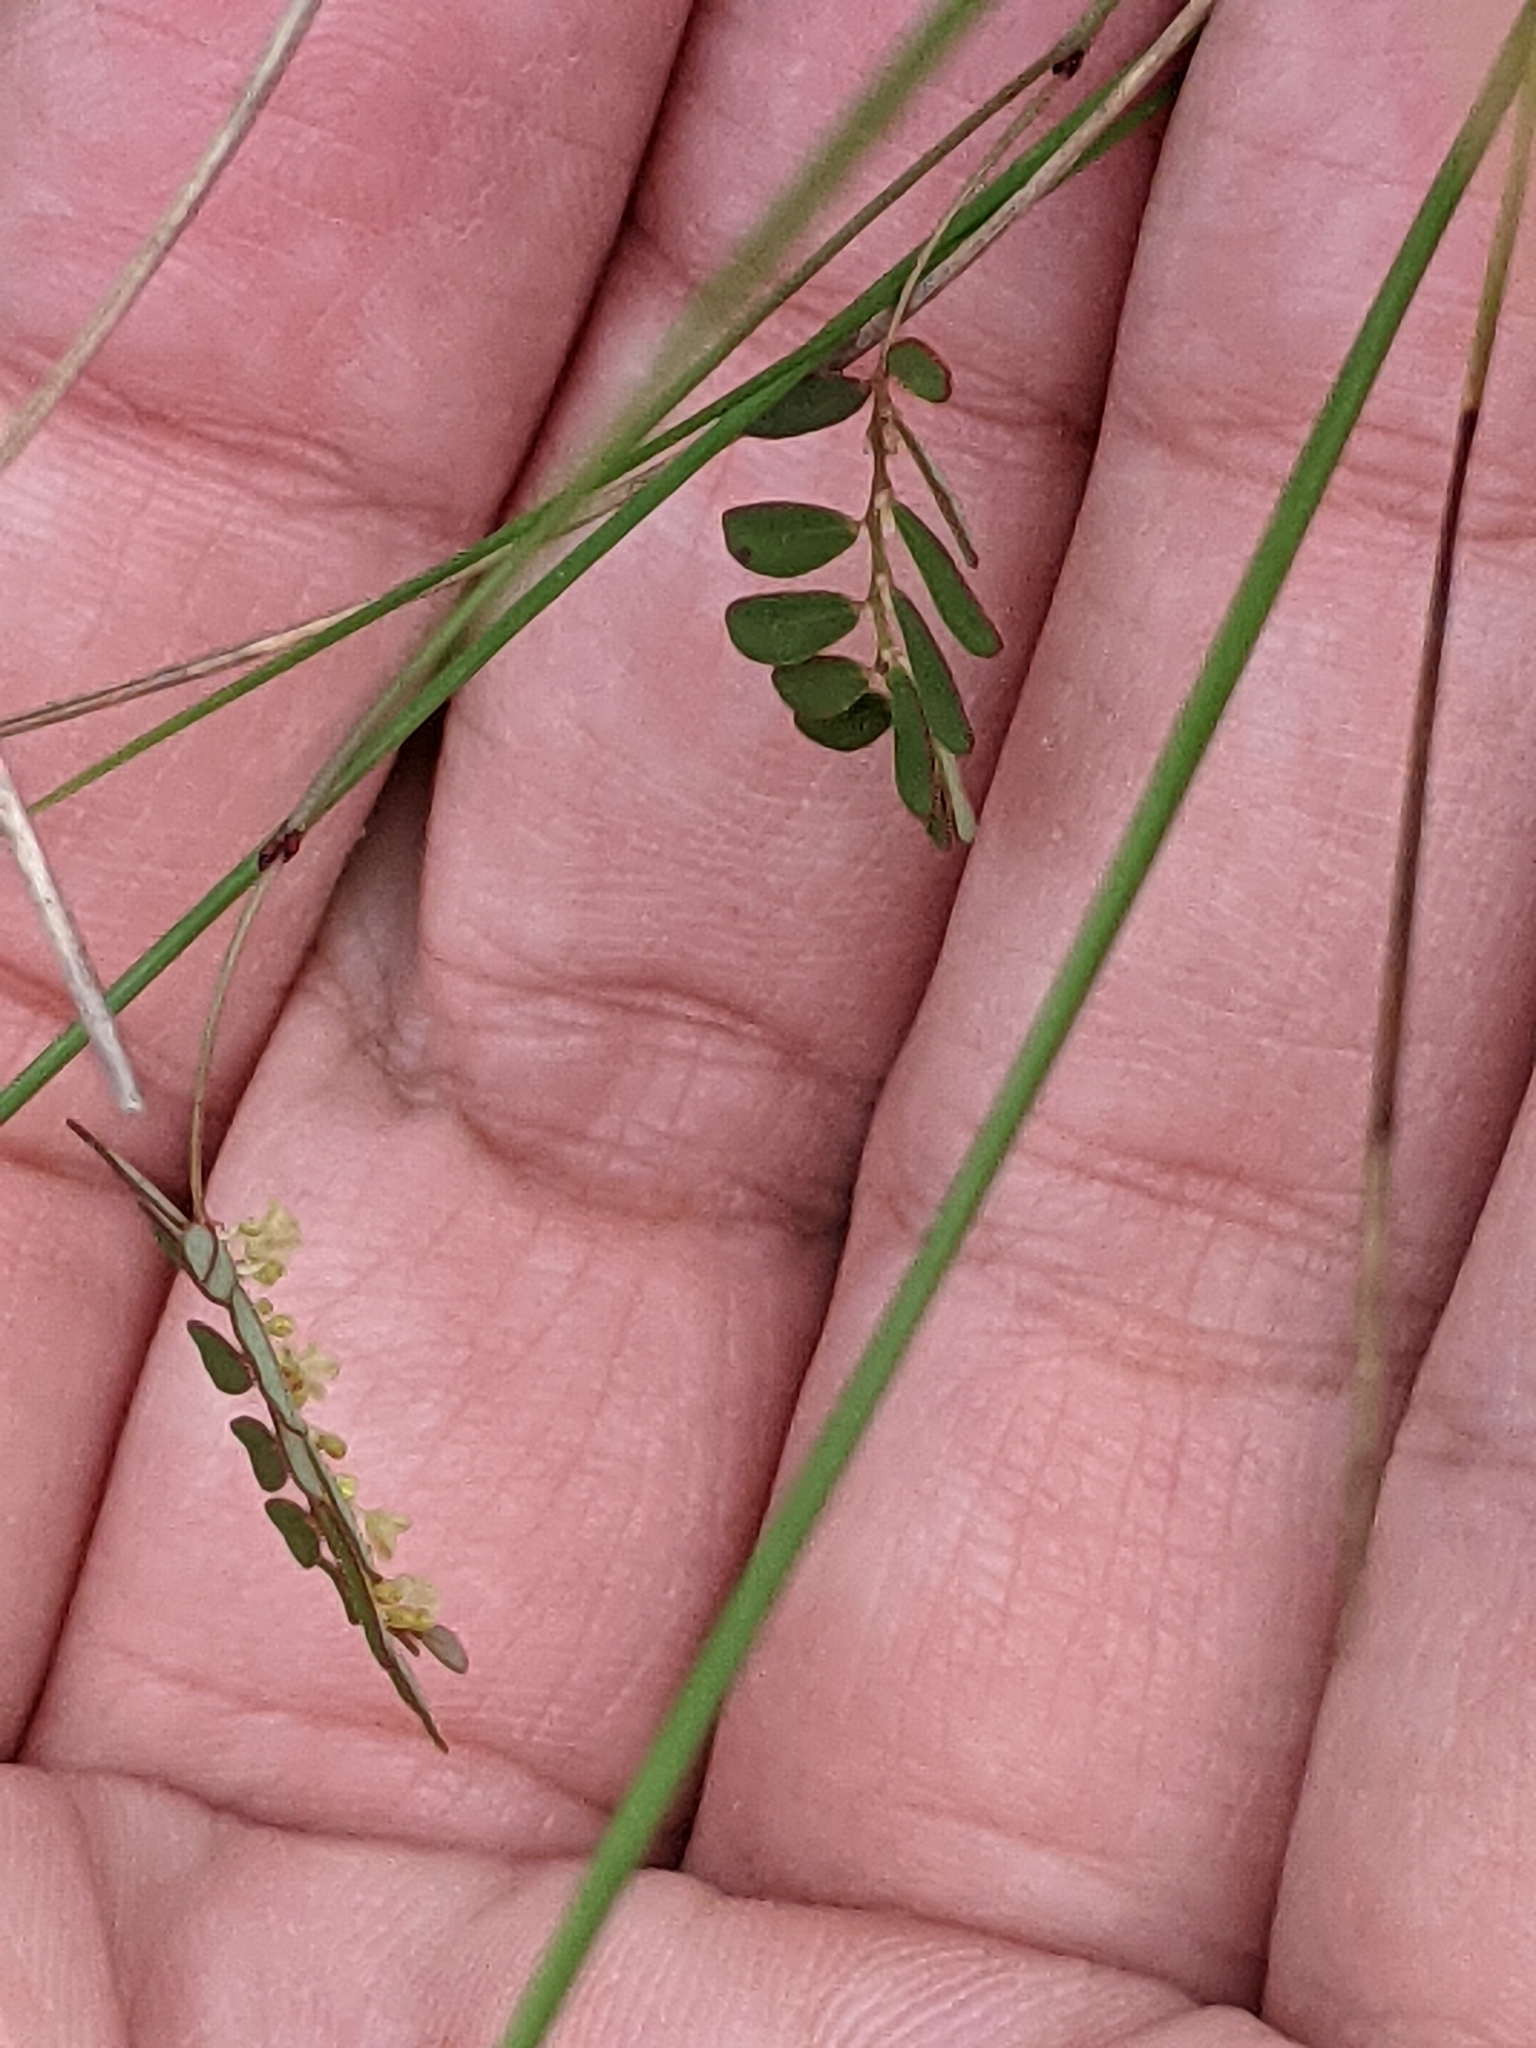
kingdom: Plantae
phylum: Tracheophyta
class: Magnoliopsida
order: Malpighiales
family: Phyllanthaceae
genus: Phyllanthus
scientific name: Phyllanthus pentaphyllus
